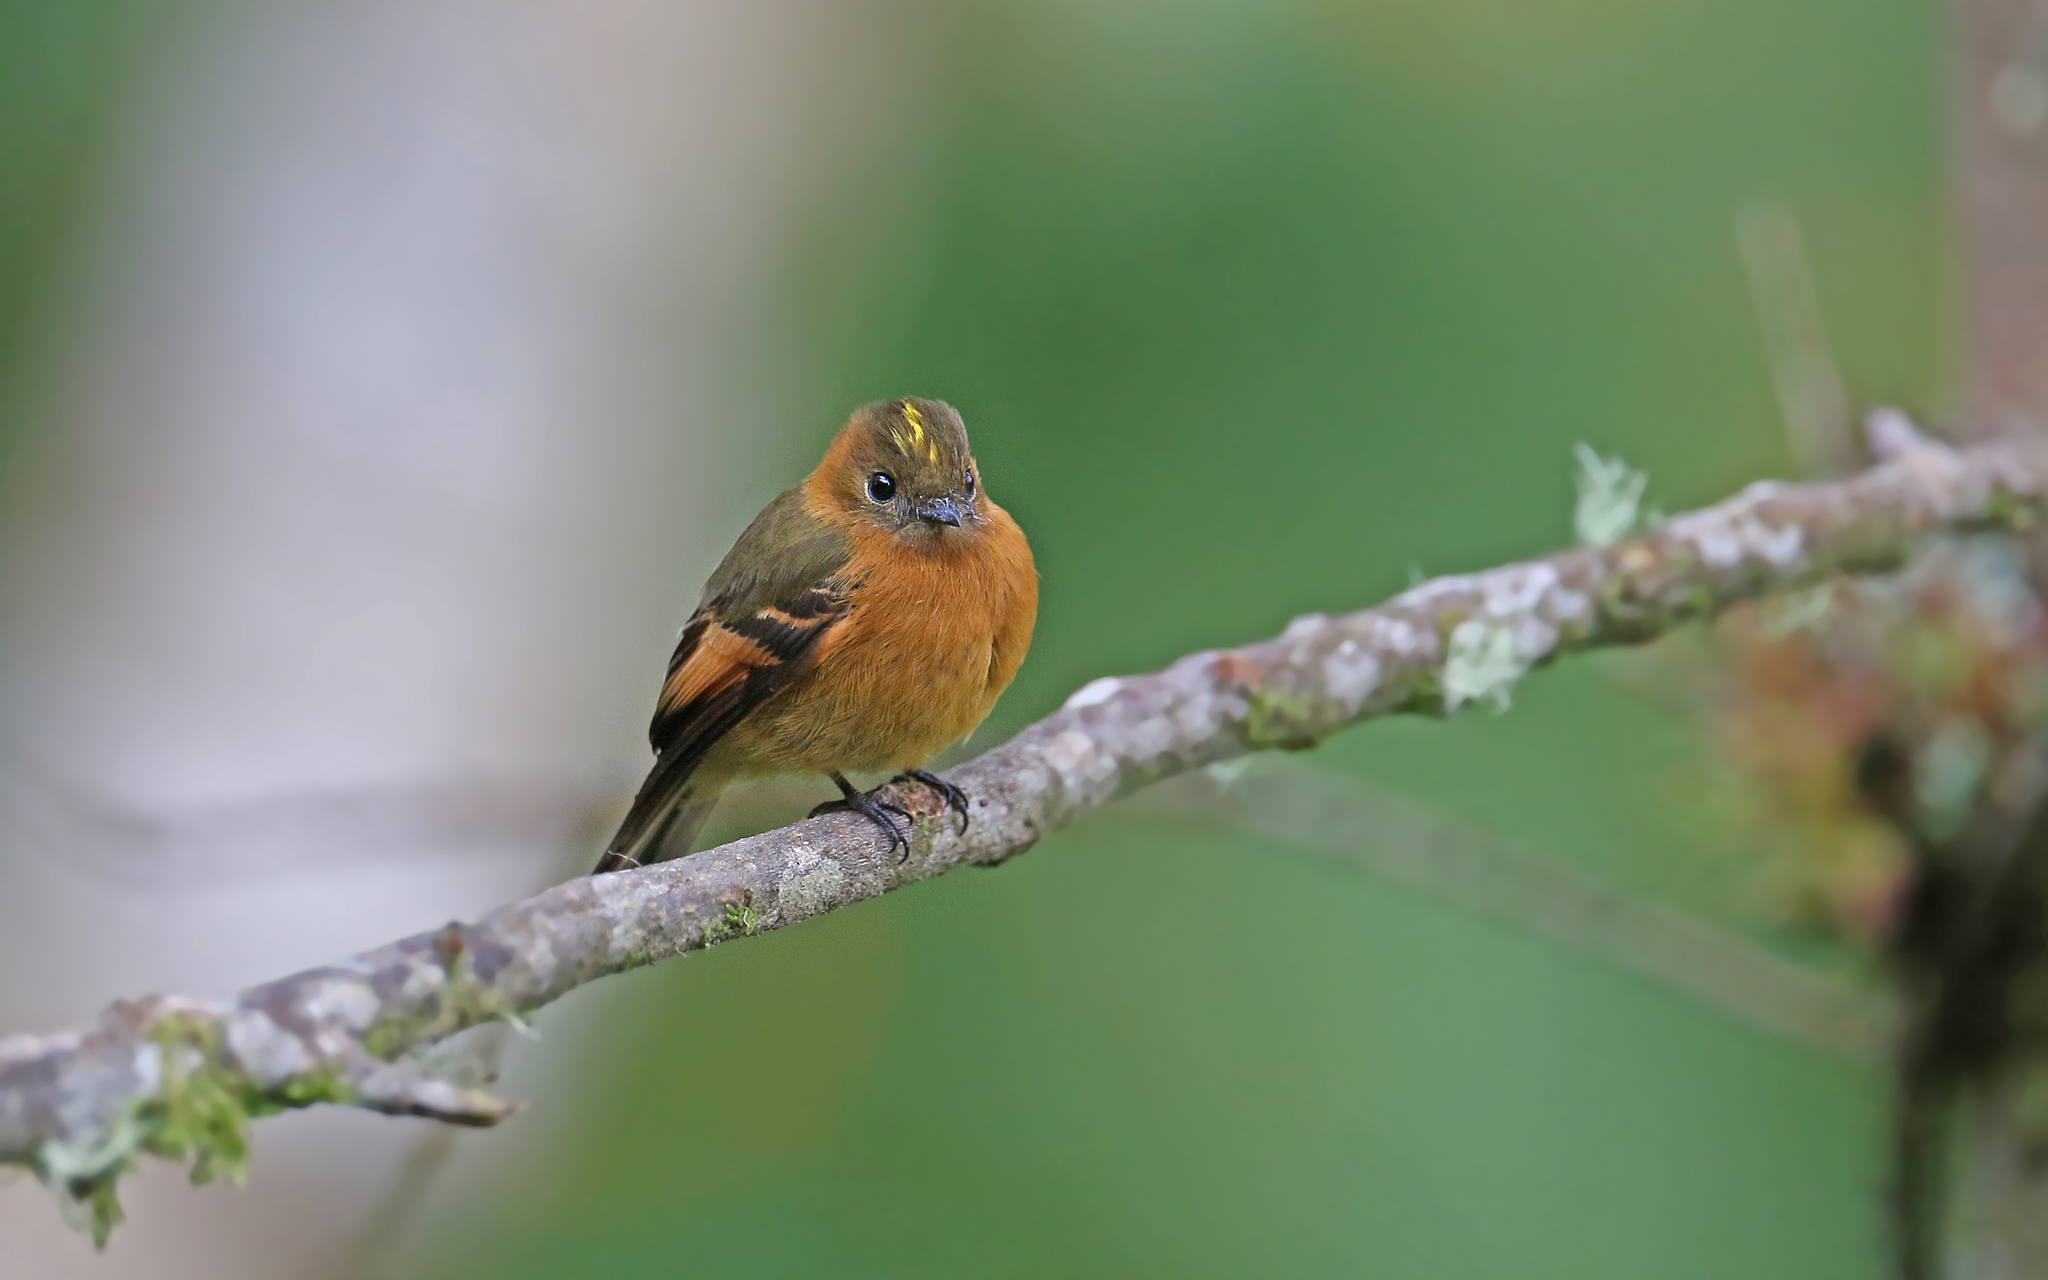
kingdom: Animalia
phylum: Chordata
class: Aves
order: Passeriformes
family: Tyrannidae
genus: Pyrrhomyias
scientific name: Pyrrhomyias cinnamomeus
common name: Cinnamon flycatcher
